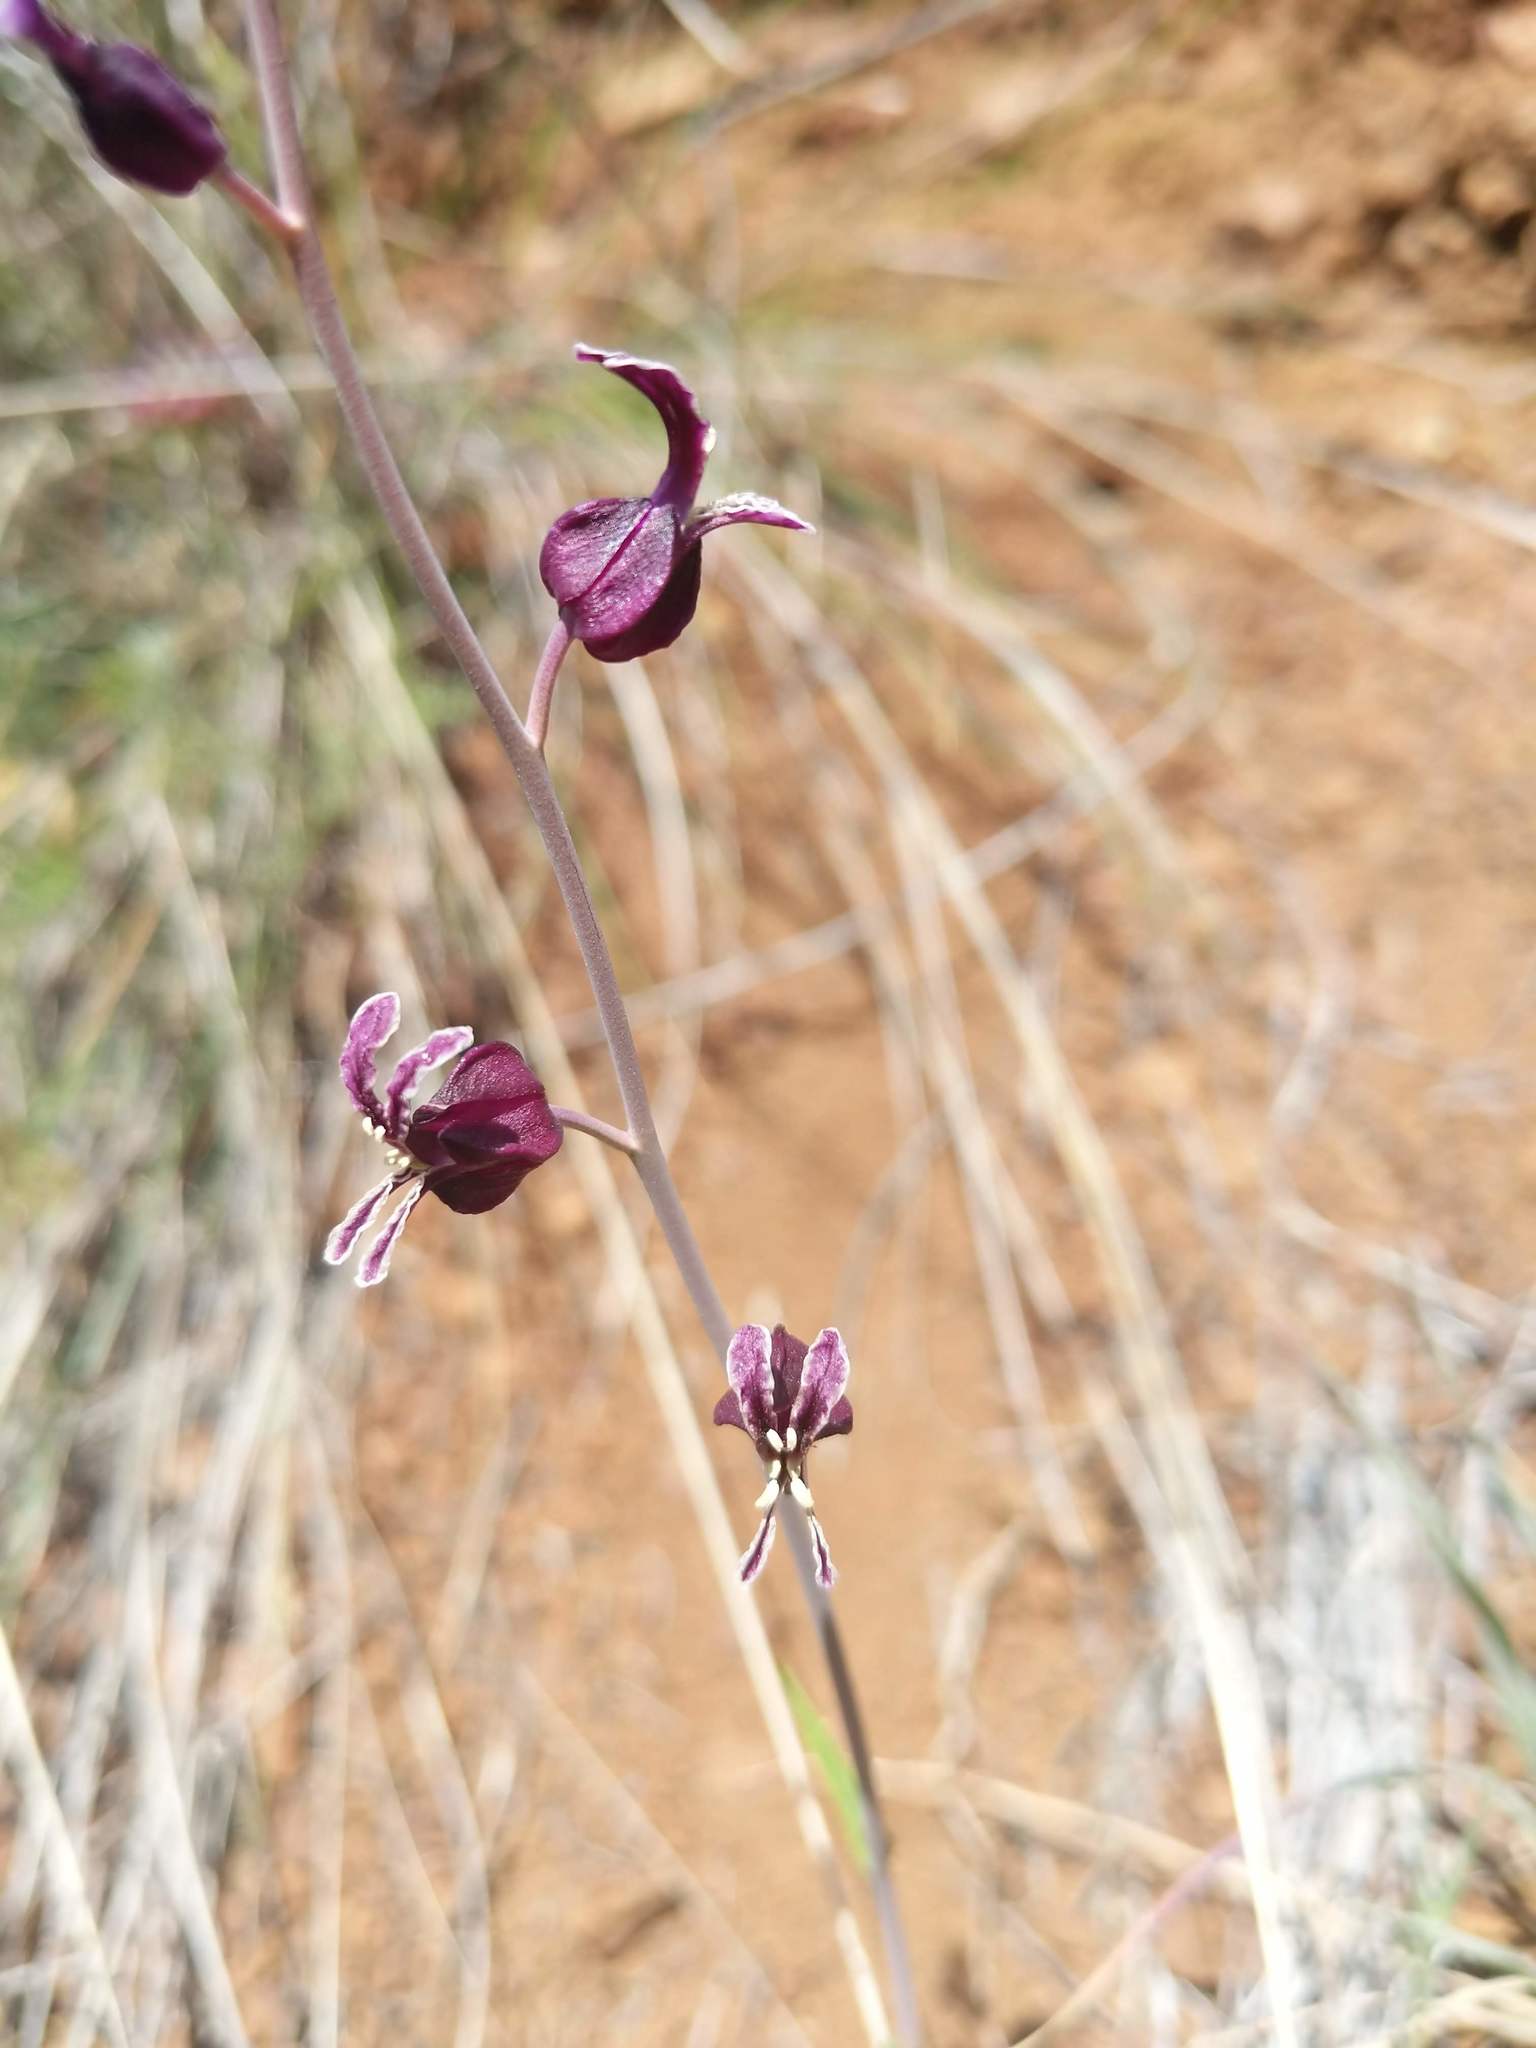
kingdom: Plantae
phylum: Tracheophyta
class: Magnoliopsida
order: Brassicales
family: Brassicaceae
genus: Streptanthus
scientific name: Streptanthus glandulosus
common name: Jewel-flower
